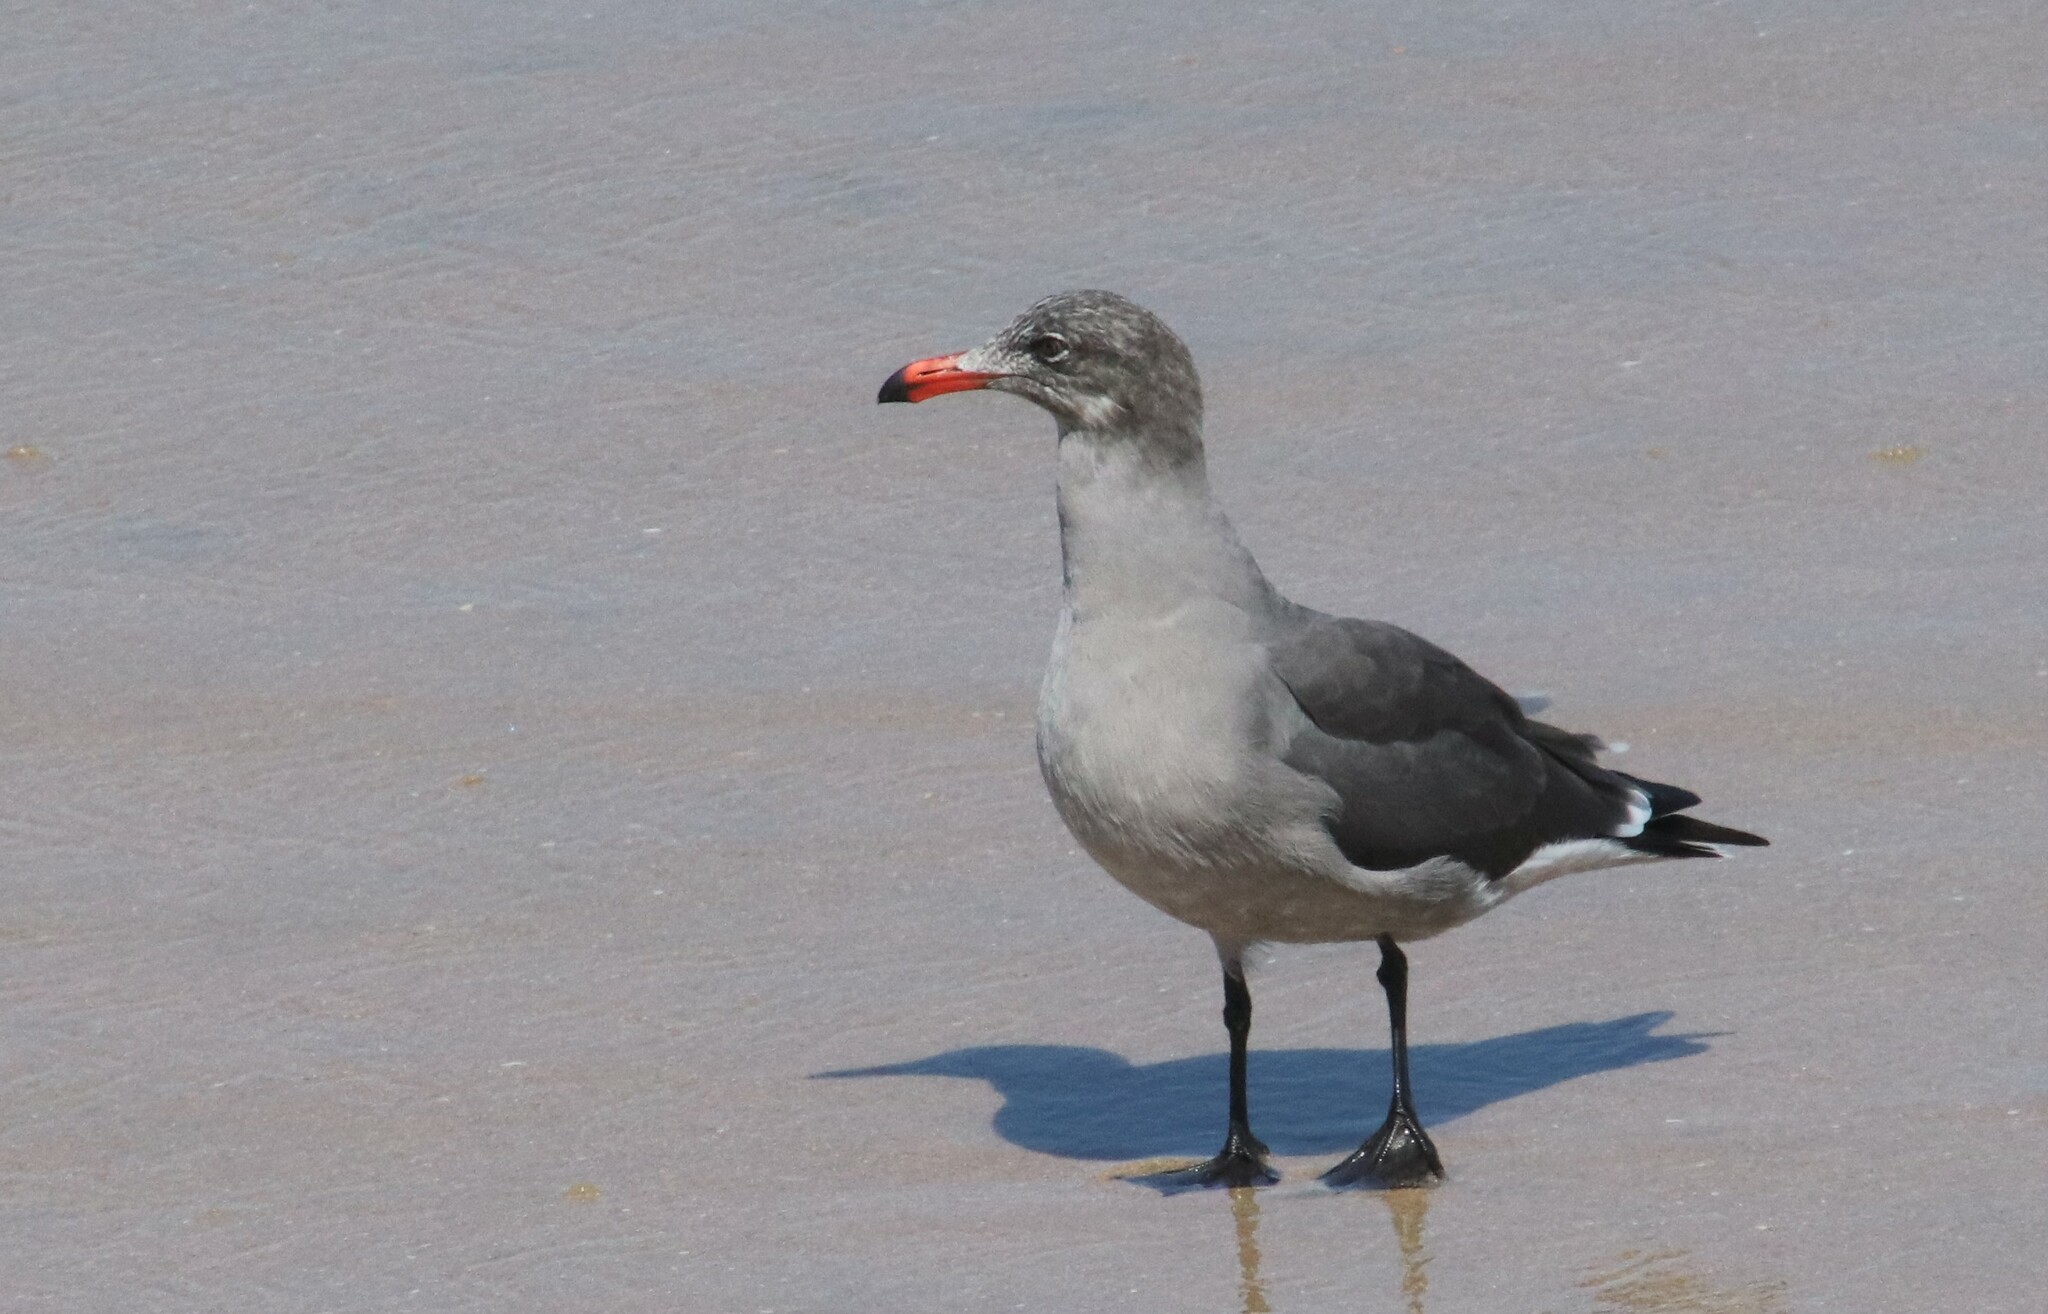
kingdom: Animalia
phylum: Chordata
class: Aves
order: Charadriiformes
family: Laridae
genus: Larus
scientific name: Larus heermanni
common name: Heermann's gull
